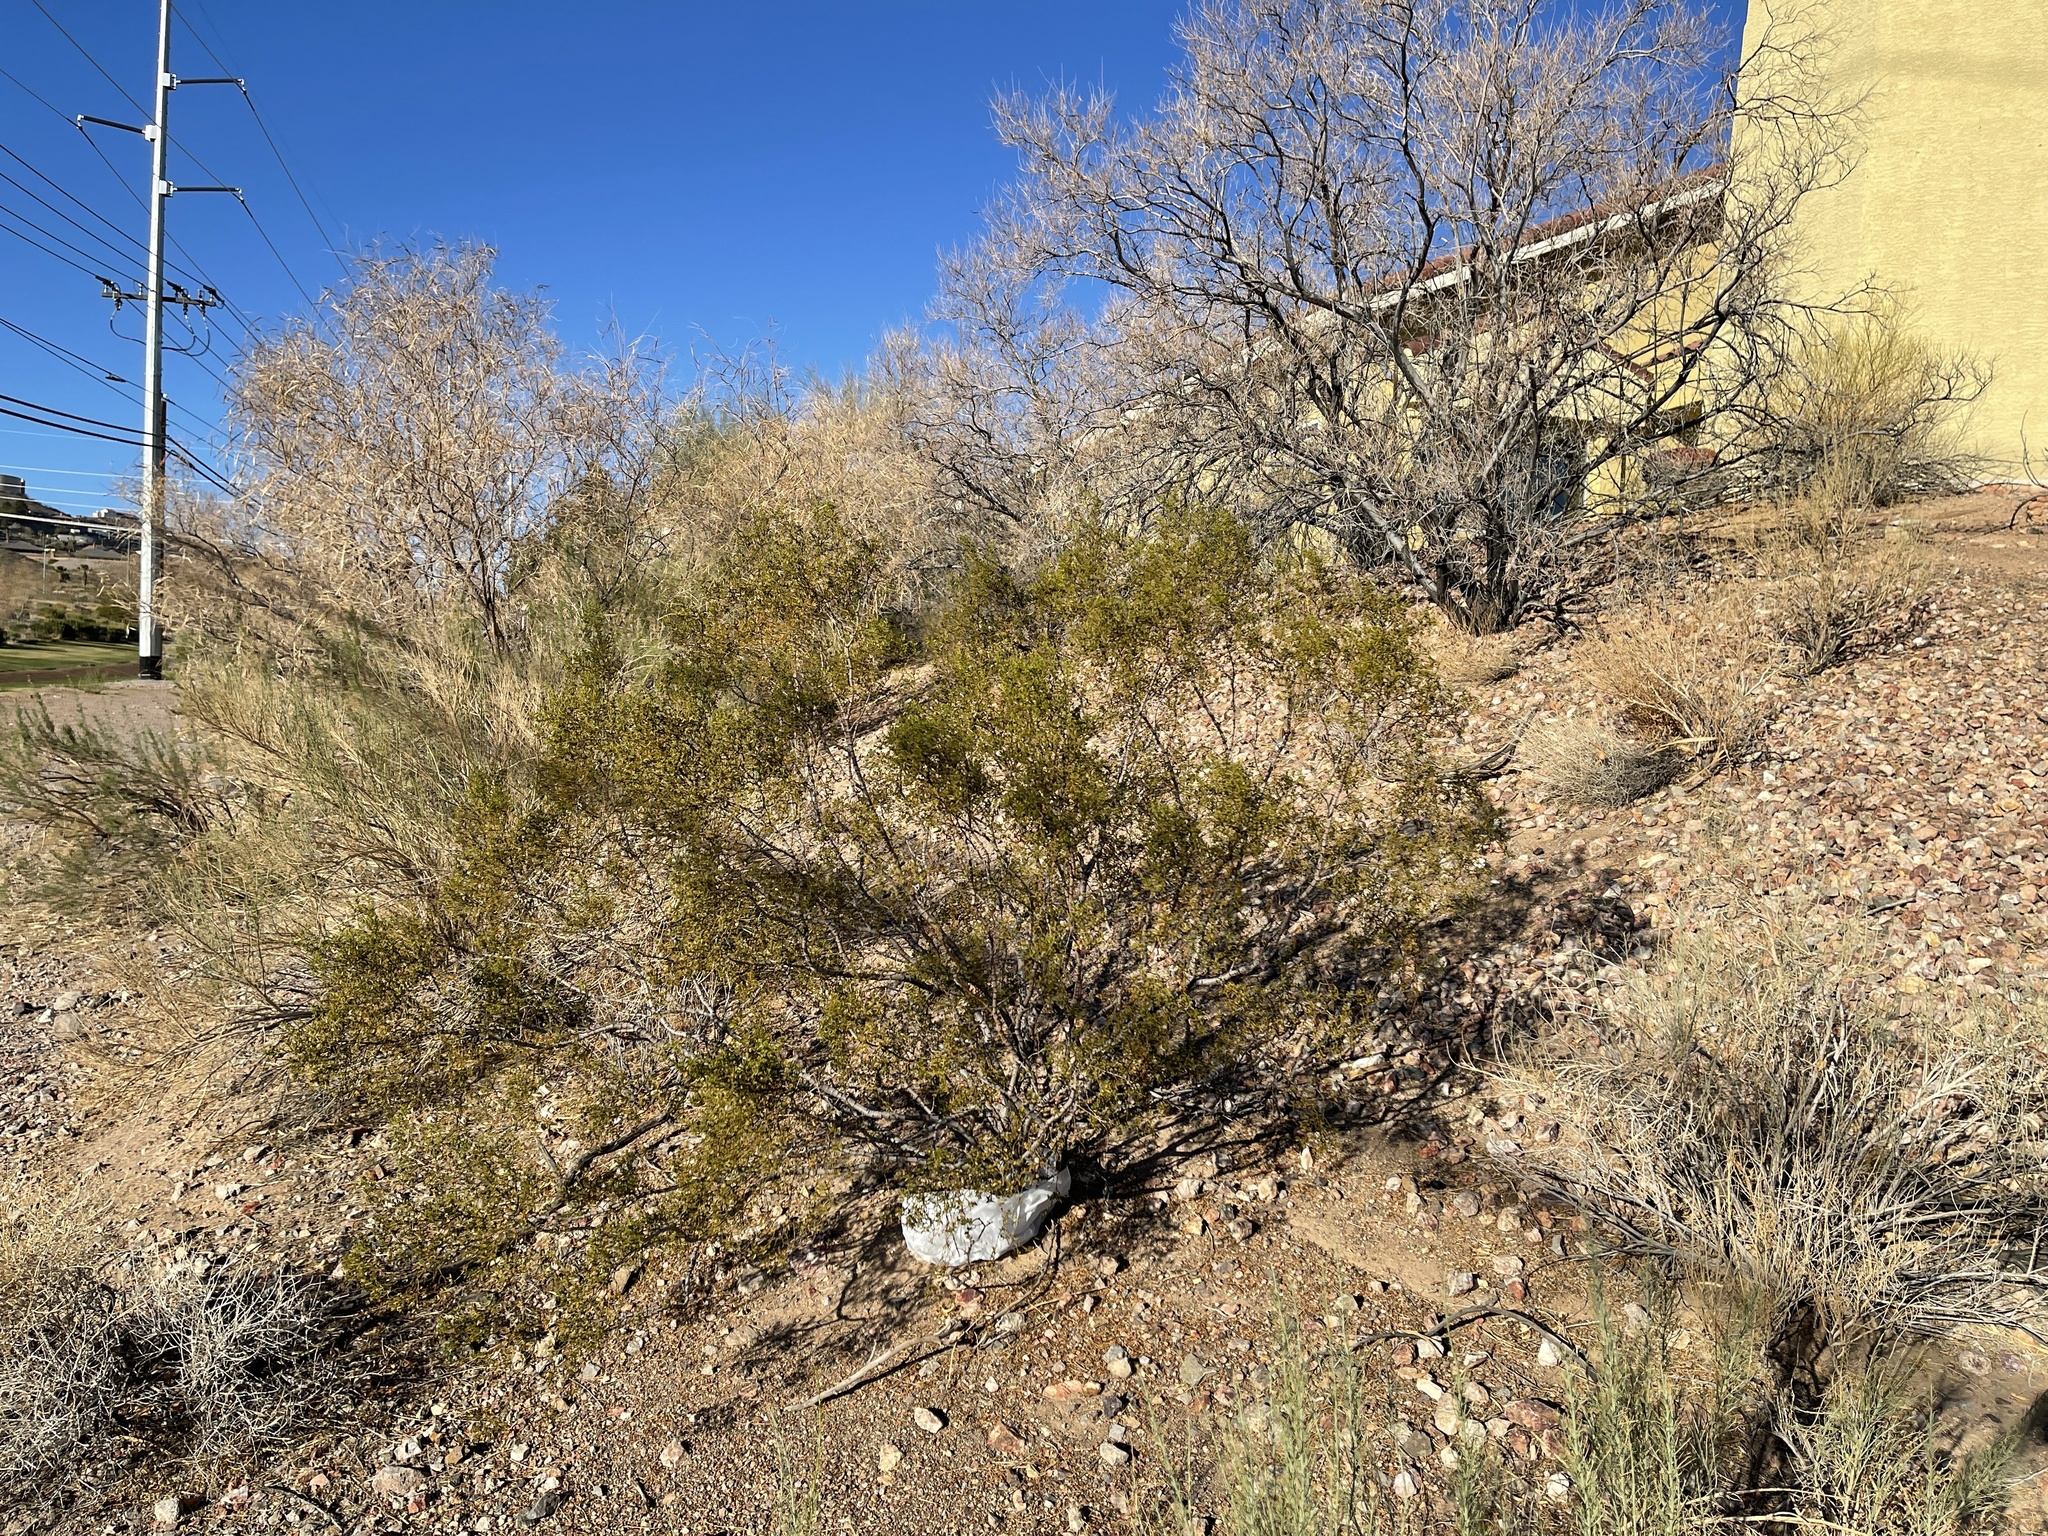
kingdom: Plantae
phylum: Tracheophyta
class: Magnoliopsida
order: Zygophyllales
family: Zygophyllaceae
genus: Larrea
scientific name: Larrea tridentata
